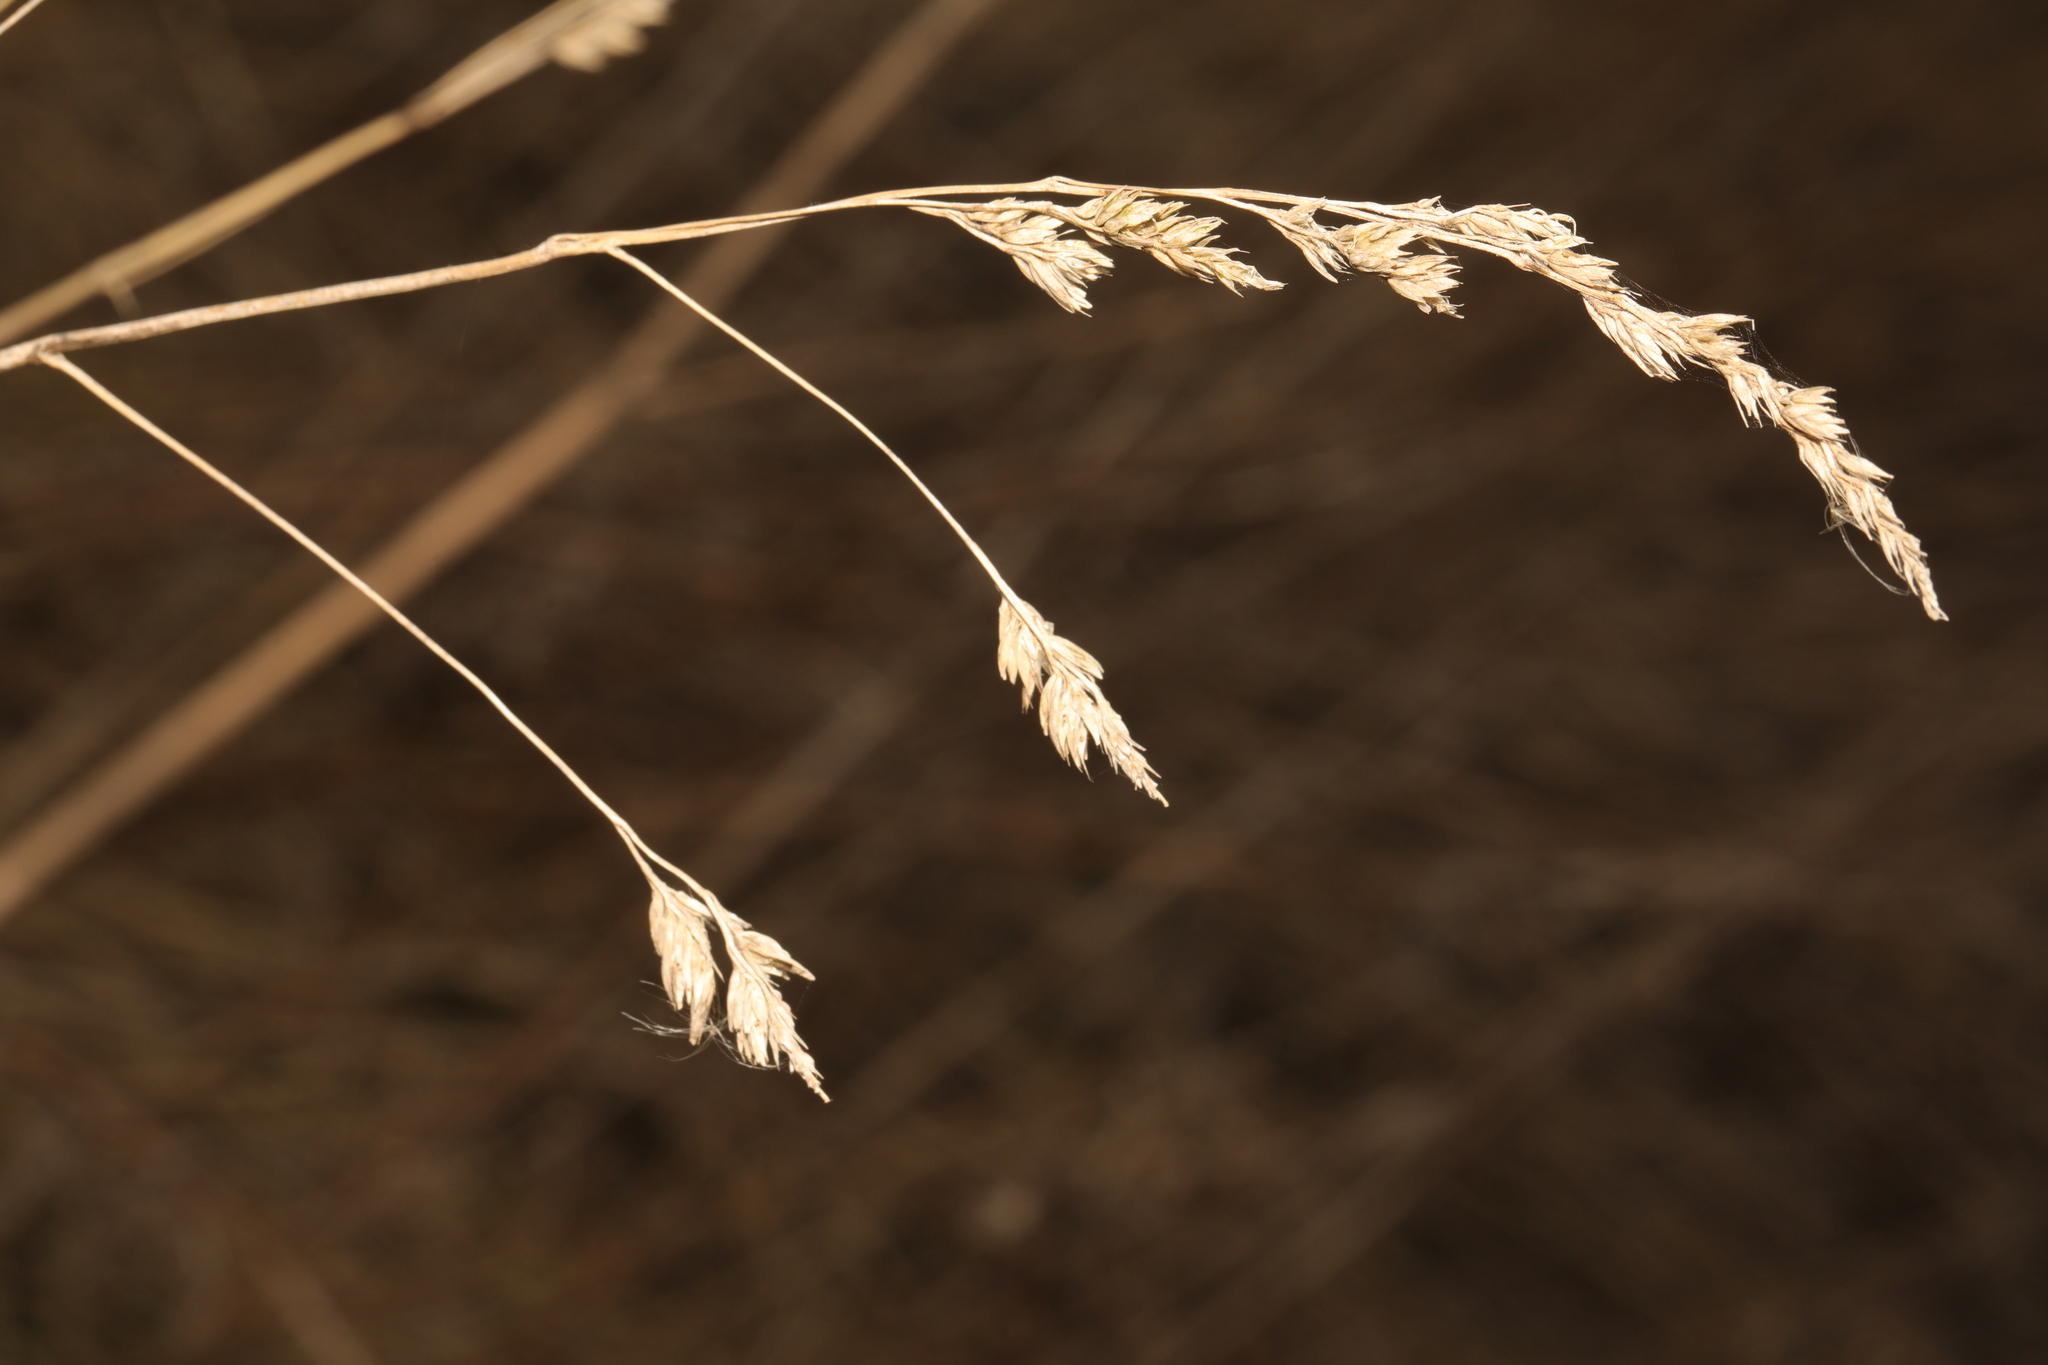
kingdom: Plantae
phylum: Tracheophyta
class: Liliopsida
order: Poales
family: Poaceae
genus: Dactylis
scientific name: Dactylis glomerata
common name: Orchardgrass
